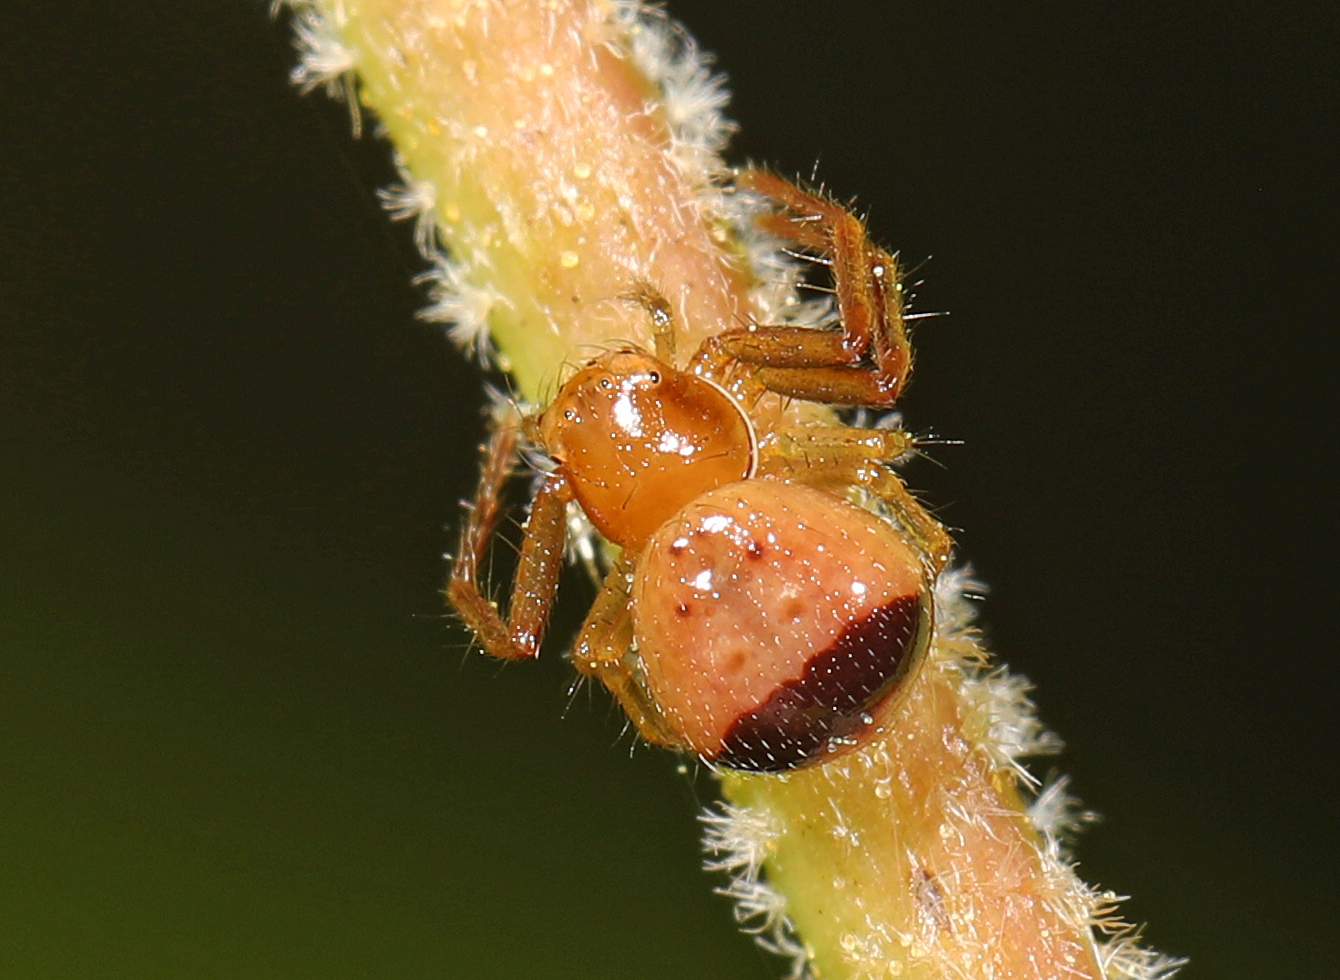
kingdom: Animalia
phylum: Arthropoda
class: Arachnida
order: Araneae
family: Thomisidae
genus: Synema
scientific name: Synema parvulum
